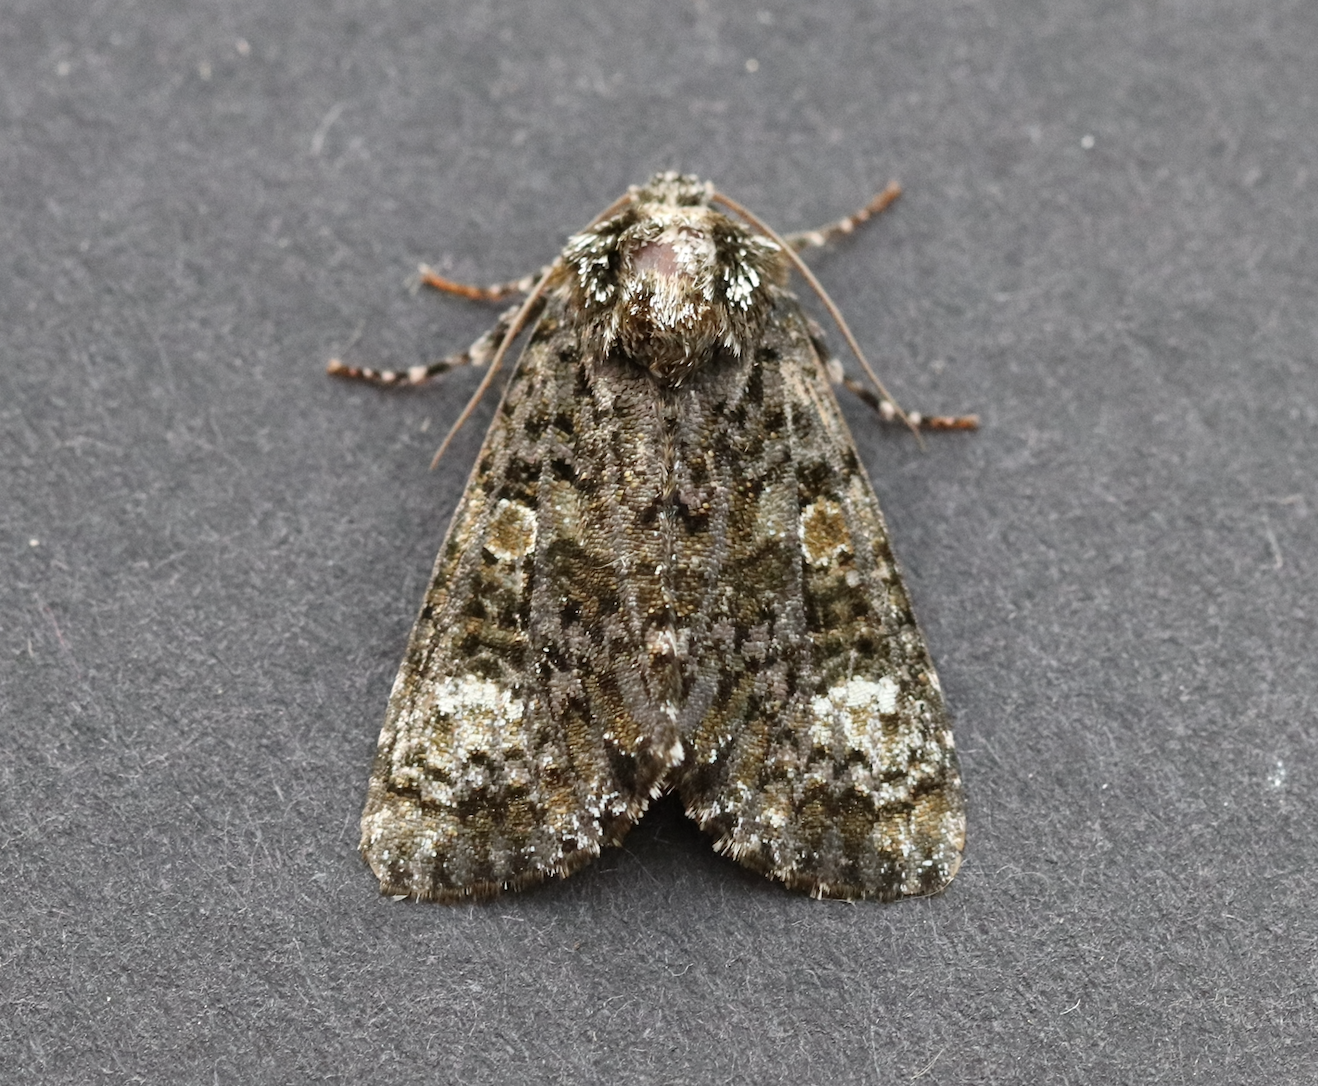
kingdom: Animalia
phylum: Arthropoda
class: Insecta
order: Lepidoptera
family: Noctuidae
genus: Craniophora
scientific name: Craniophora ligustri
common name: Coronet
